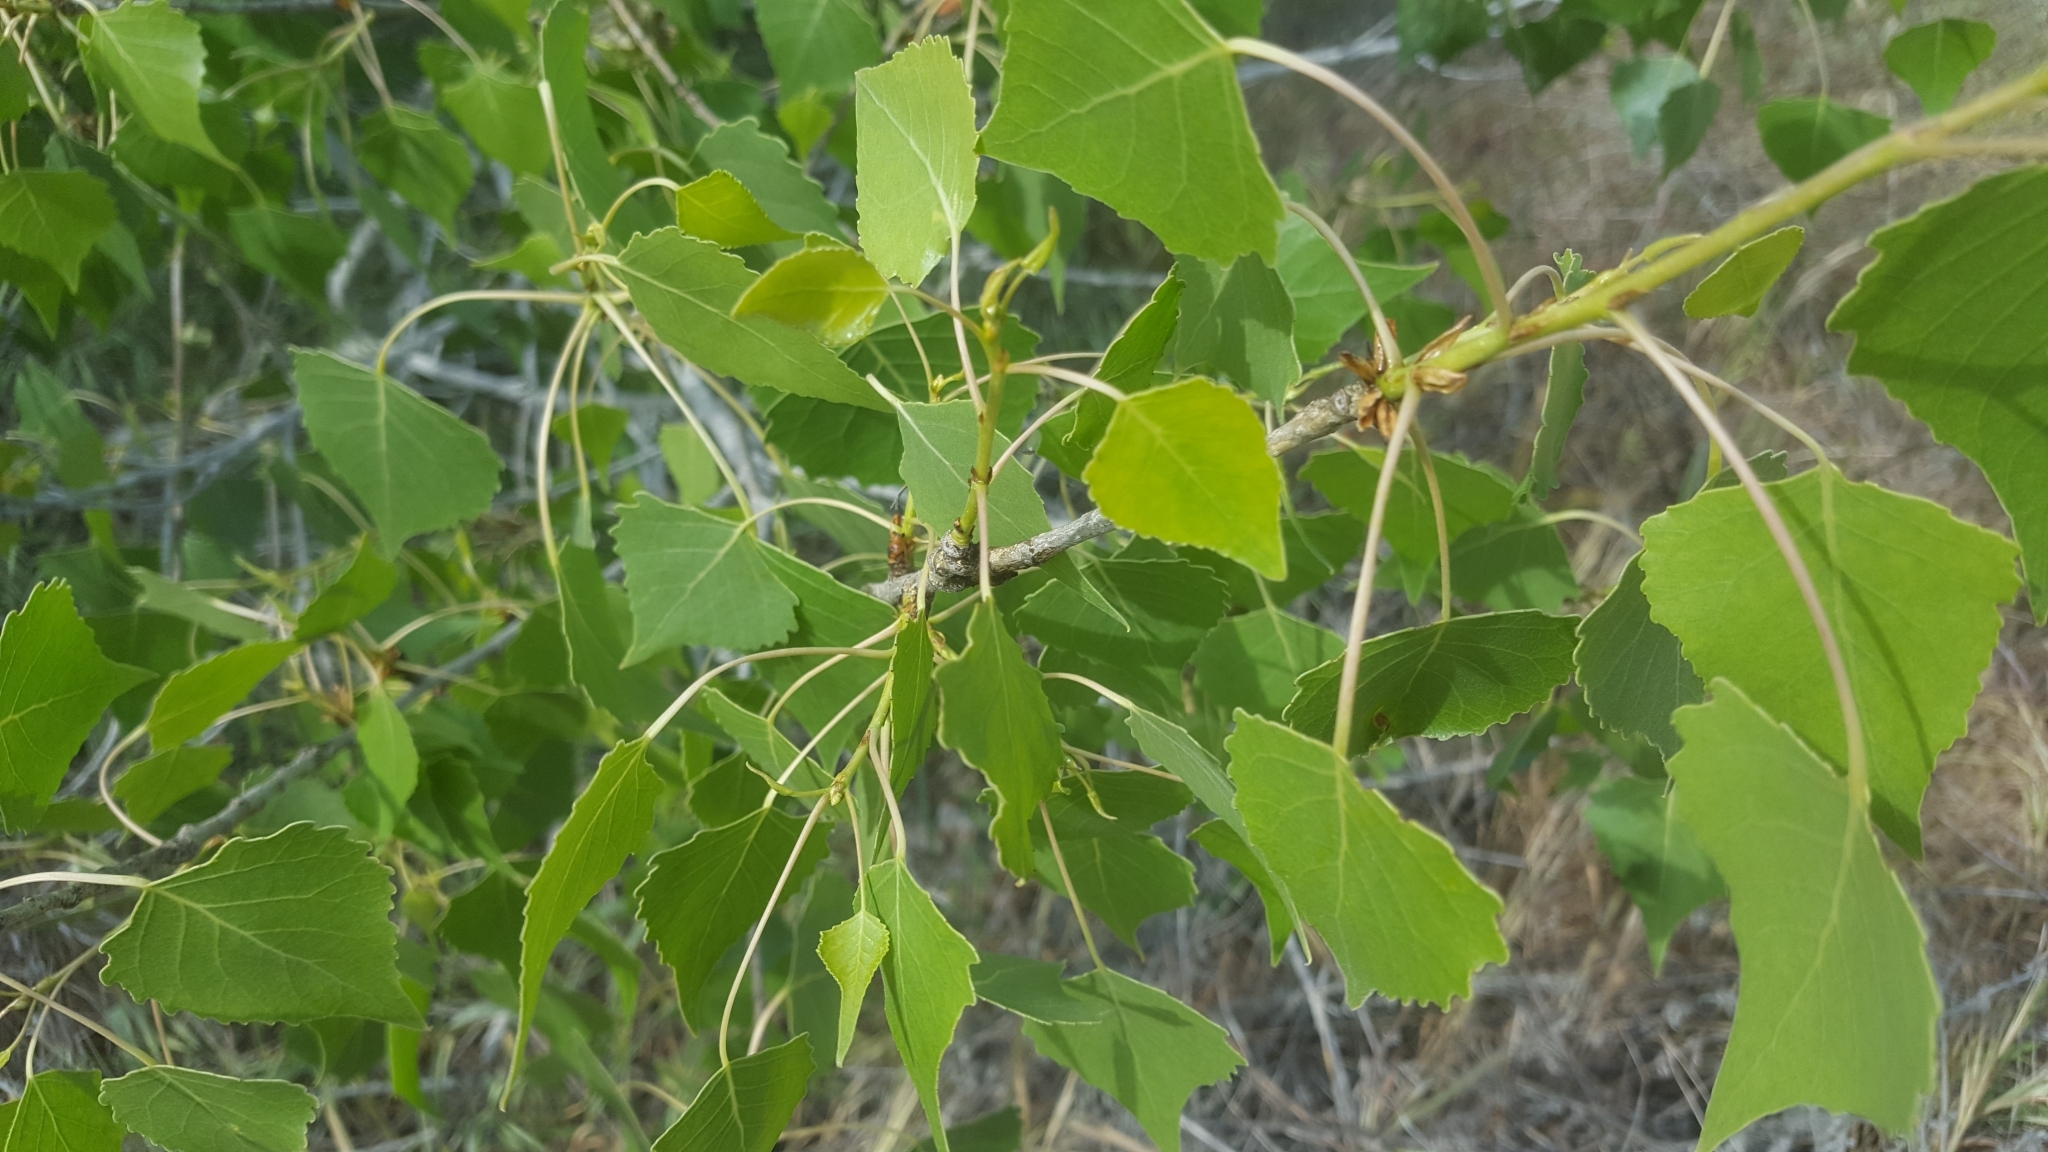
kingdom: Plantae
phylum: Tracheophyta
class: Magnoliopsida
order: Malpighiales
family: Salicaceae
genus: Populus
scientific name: Populus fremontii
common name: Fremont's cottonwood
